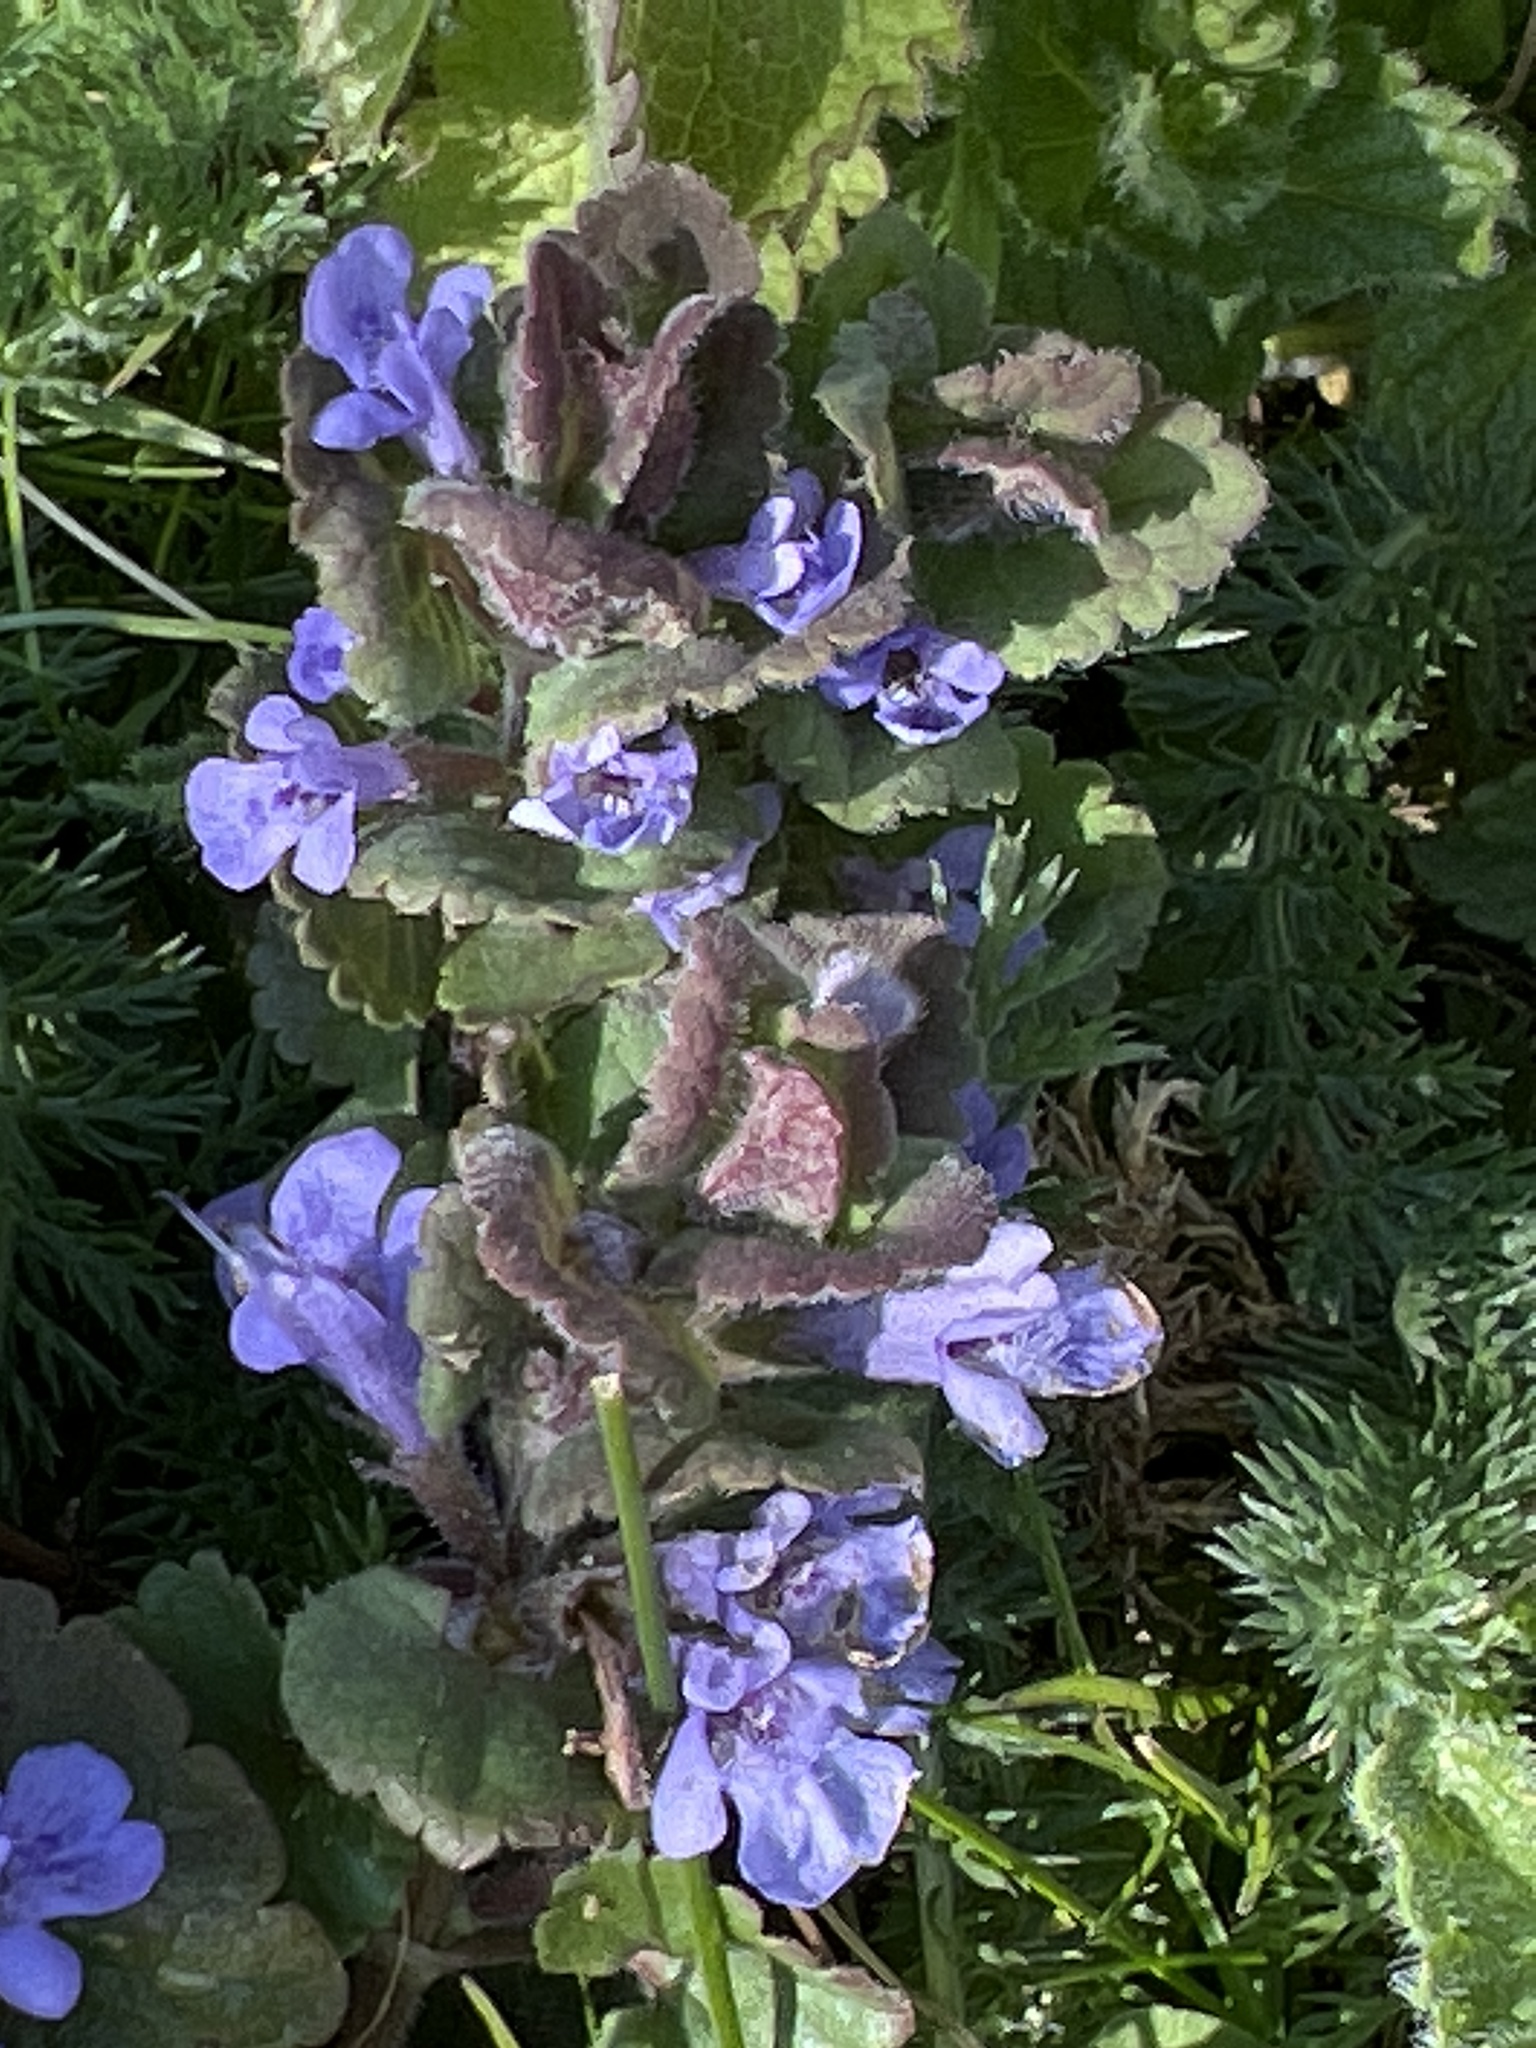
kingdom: Plantae
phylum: Tracheophyta
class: Magnoliopsida
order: Lamiales
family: Lamiaceae
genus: Glechoma
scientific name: Glechoma hederacea
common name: Ground ivy
